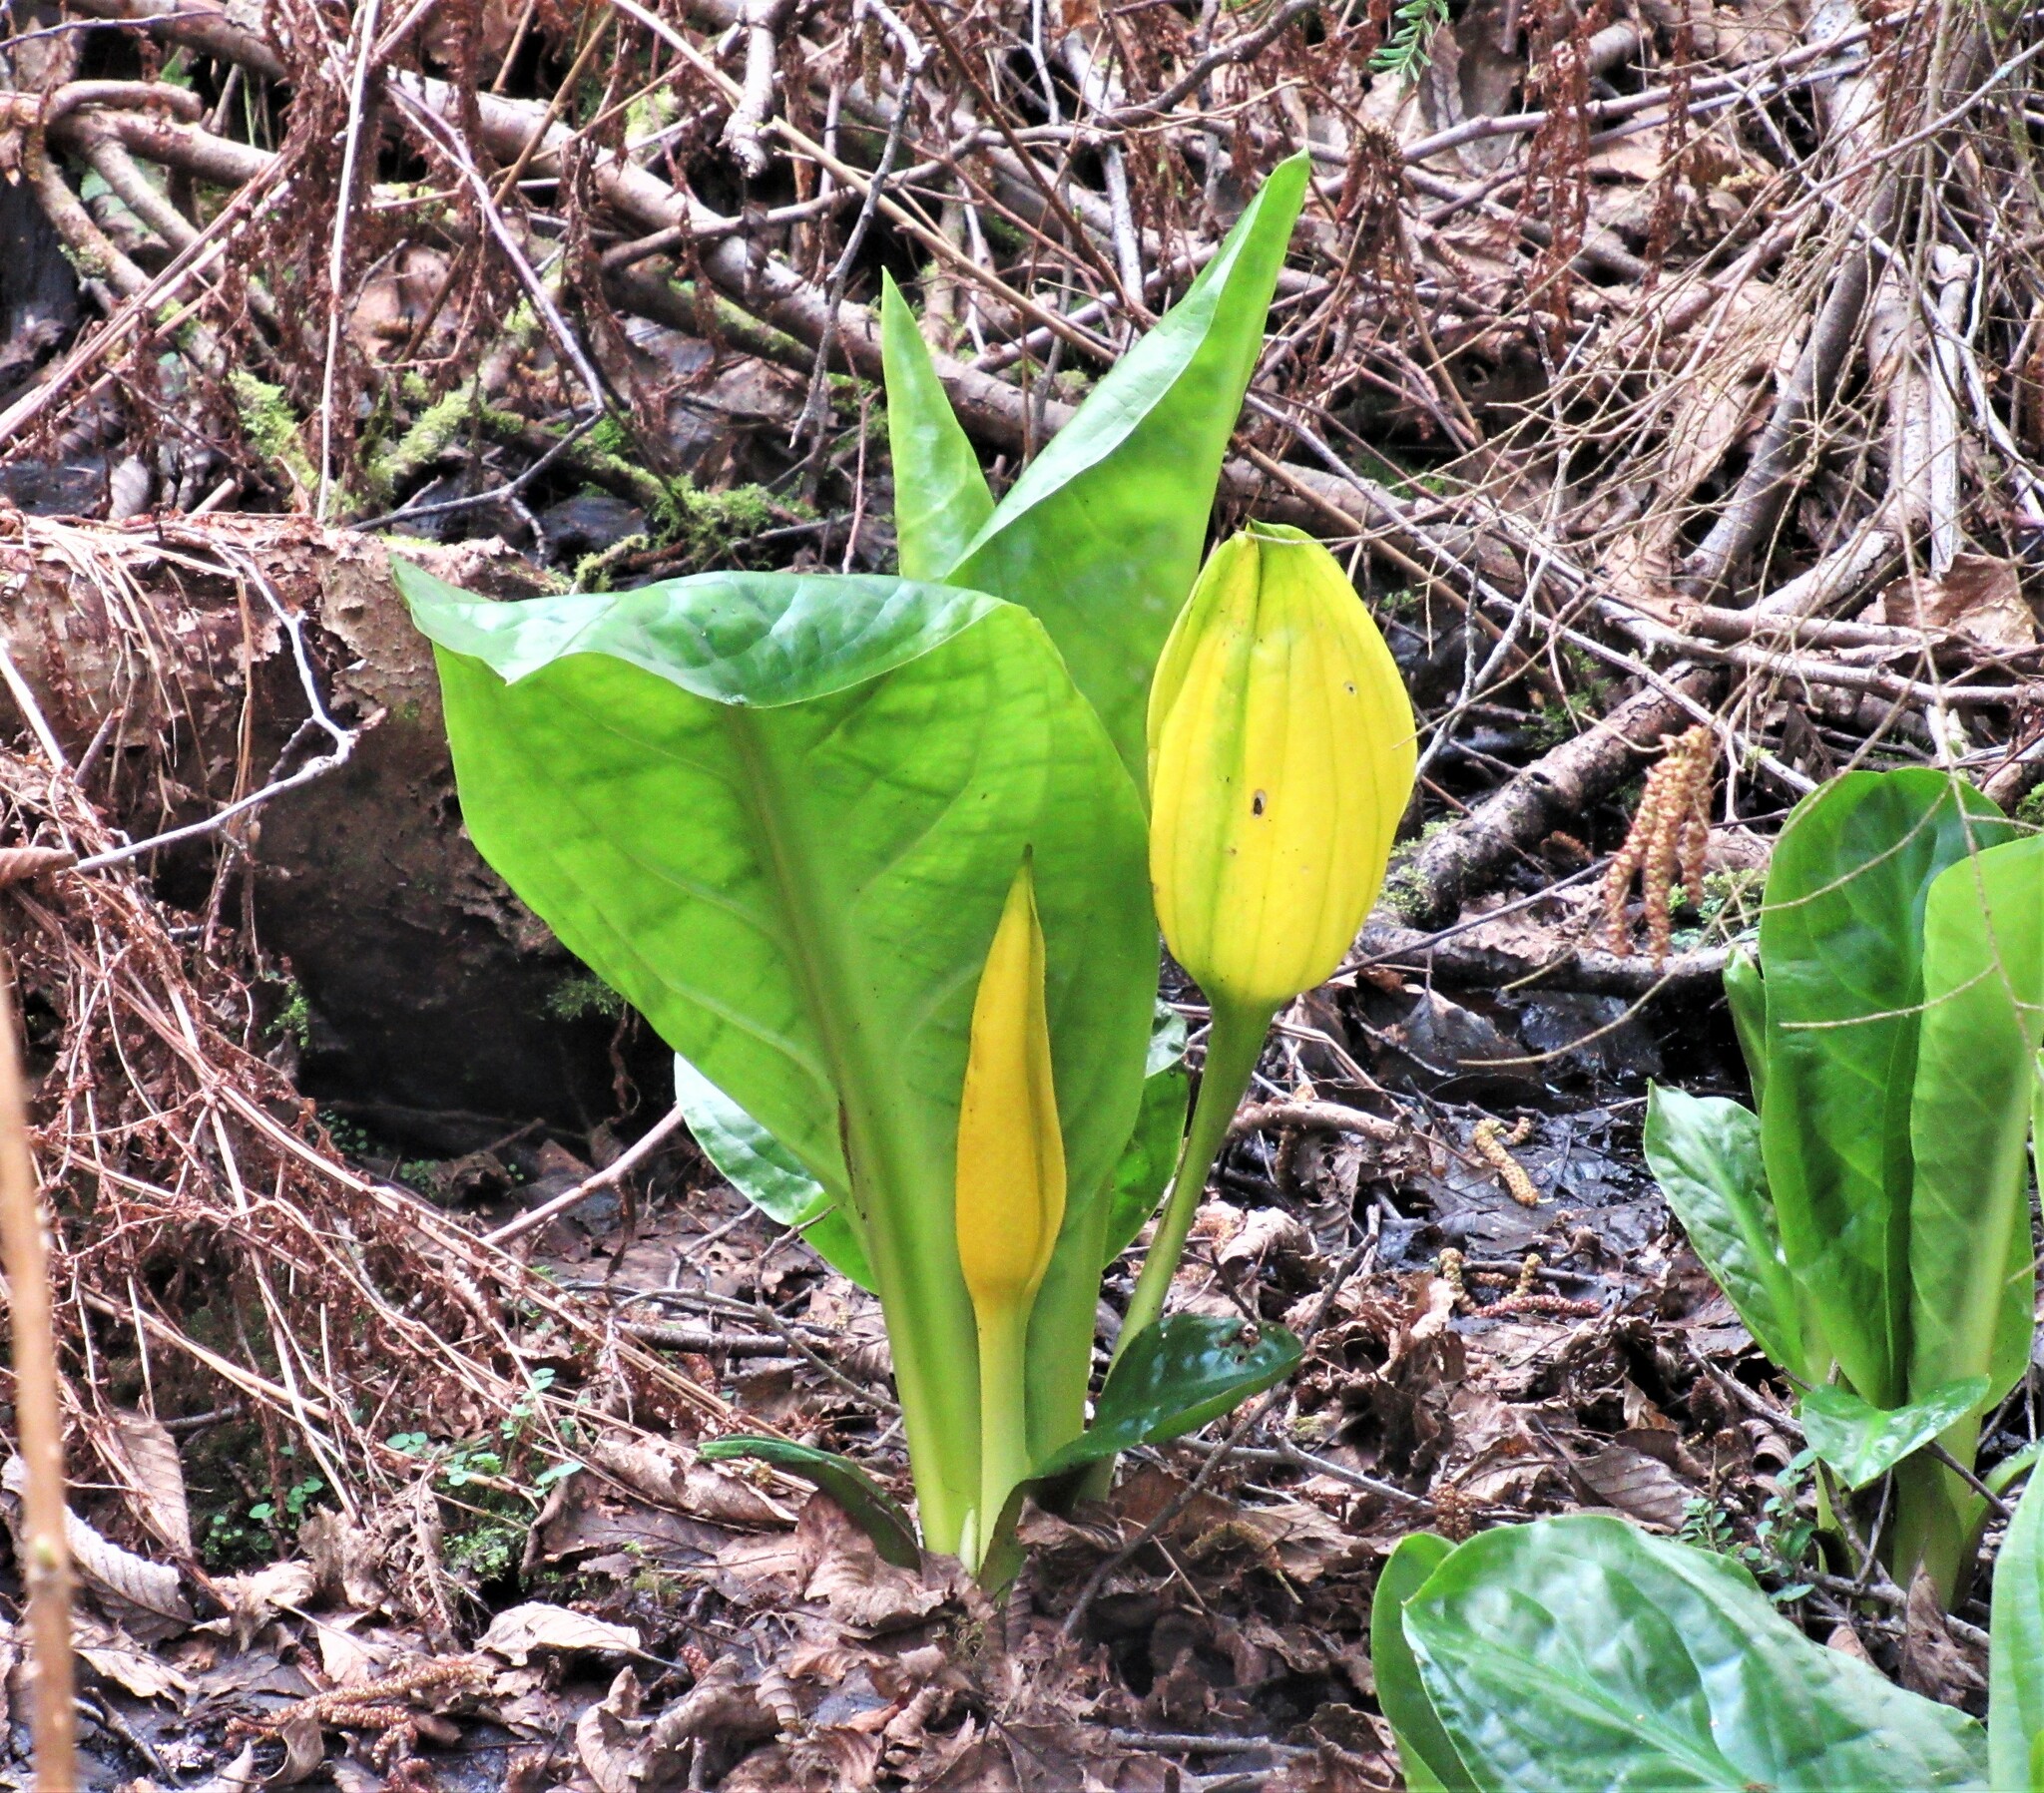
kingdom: Plantae
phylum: Tracheophyta
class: Liliopsida
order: Alismatales
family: Araceae
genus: Lysichiton
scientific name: Lysichiton americanus
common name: American skunk cabbage
